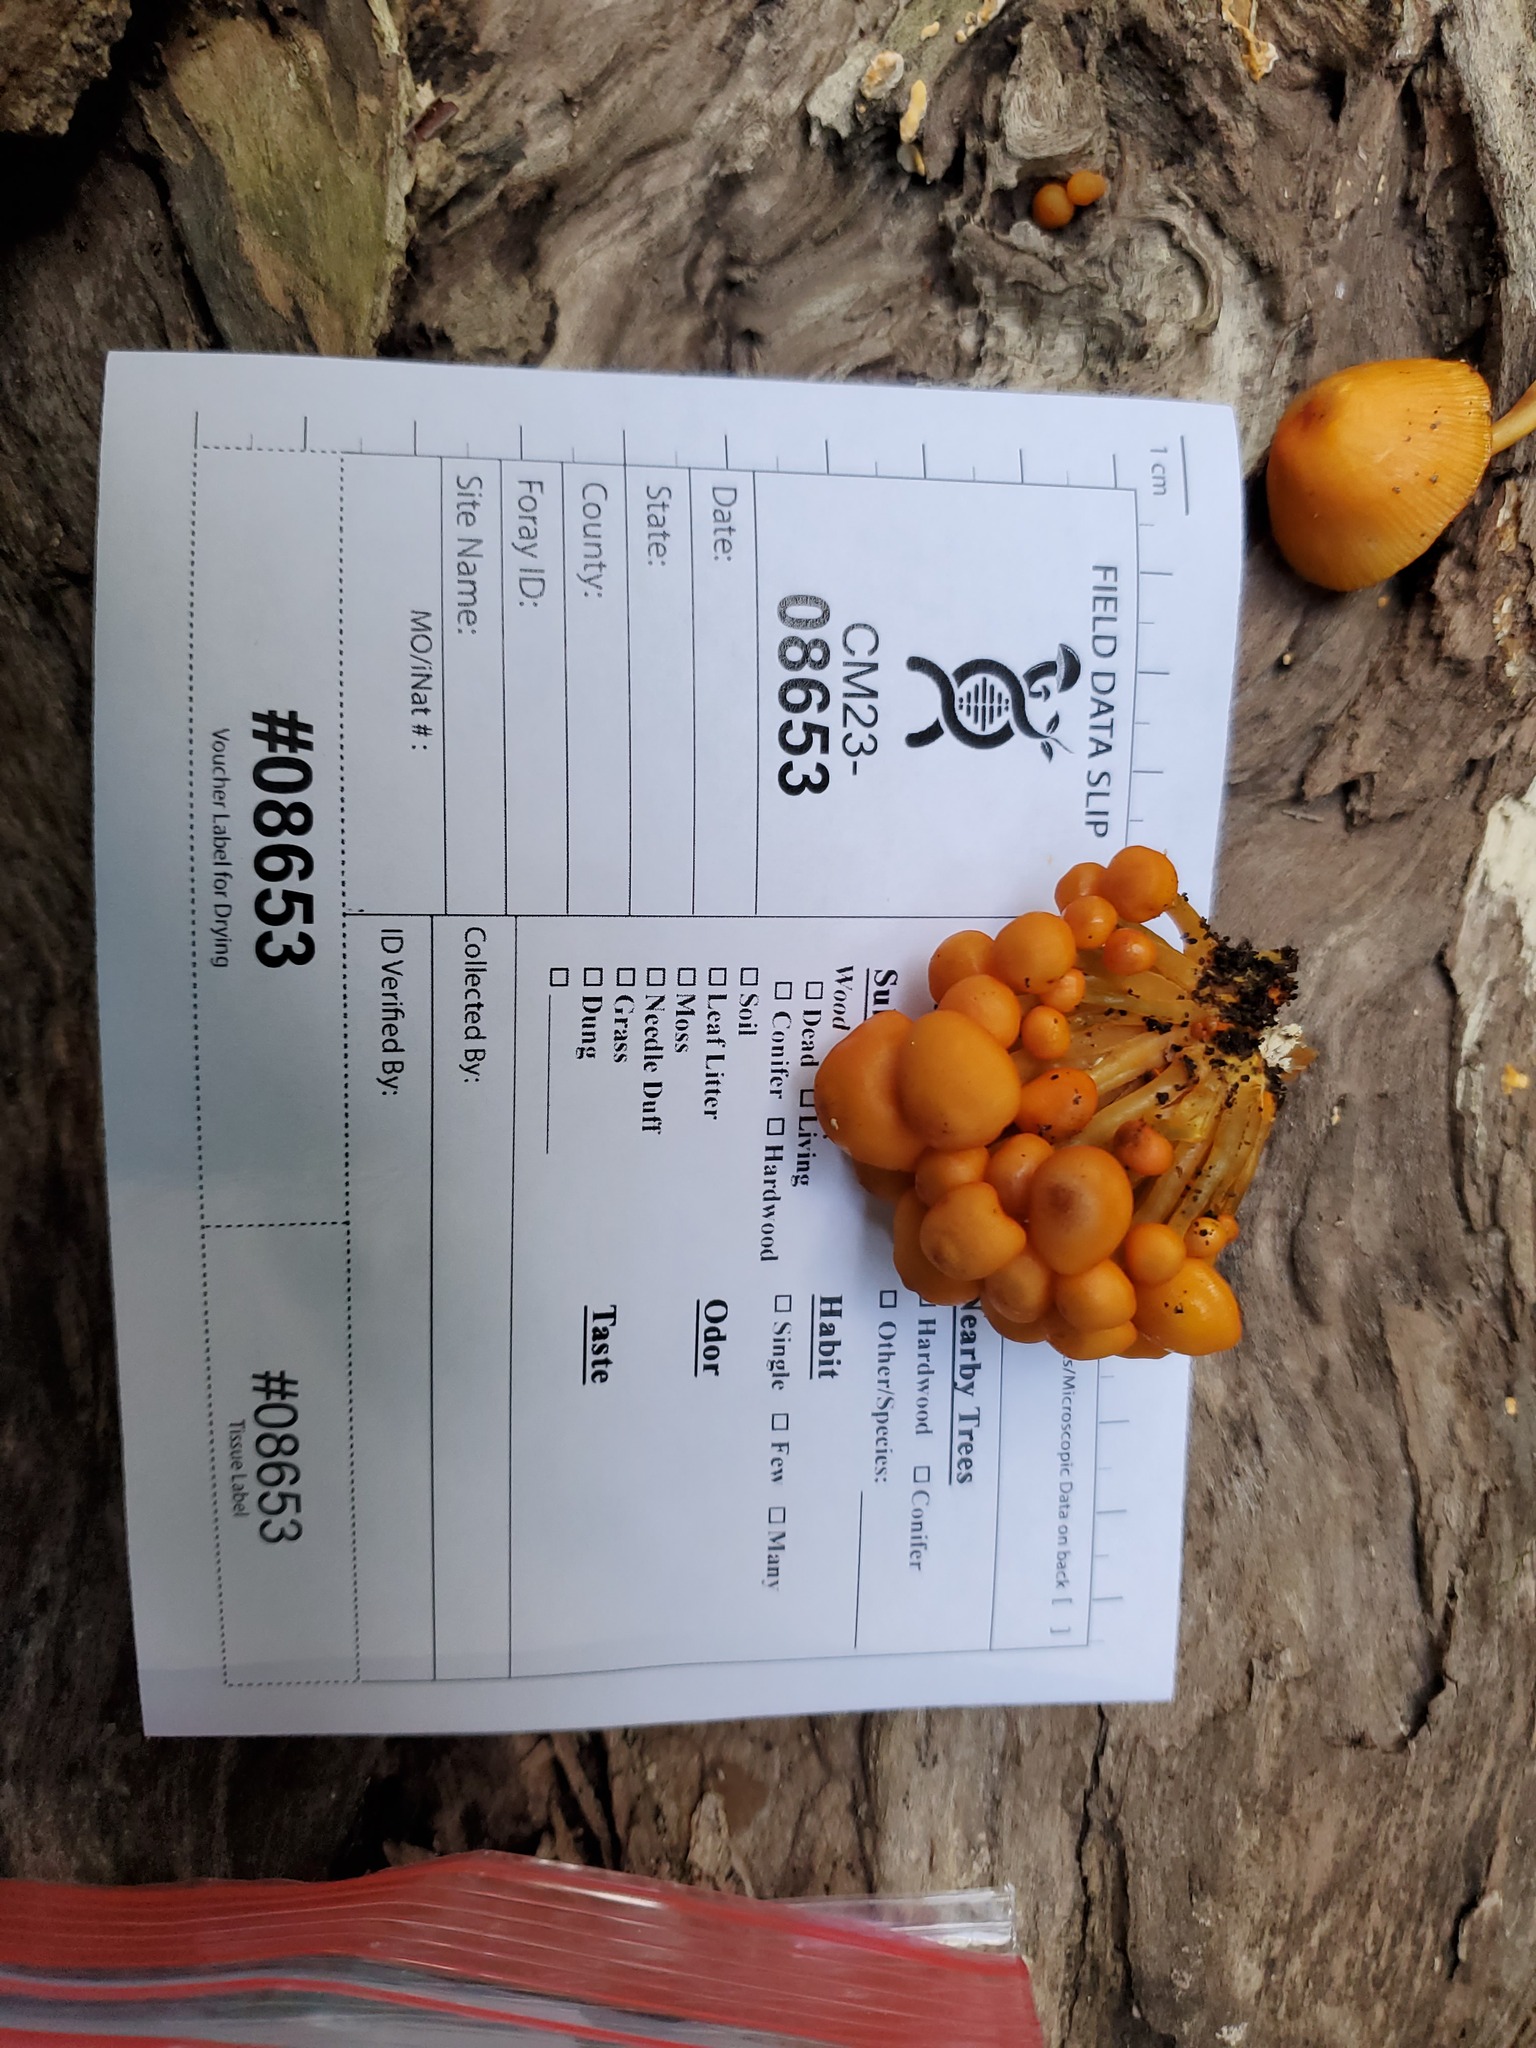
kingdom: Fungi
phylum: Basidiomycota
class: Agaricomycetes
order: Agaricales
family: Mycenaceae
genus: Mycena
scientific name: Mycena leaiana
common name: Orange mycena
